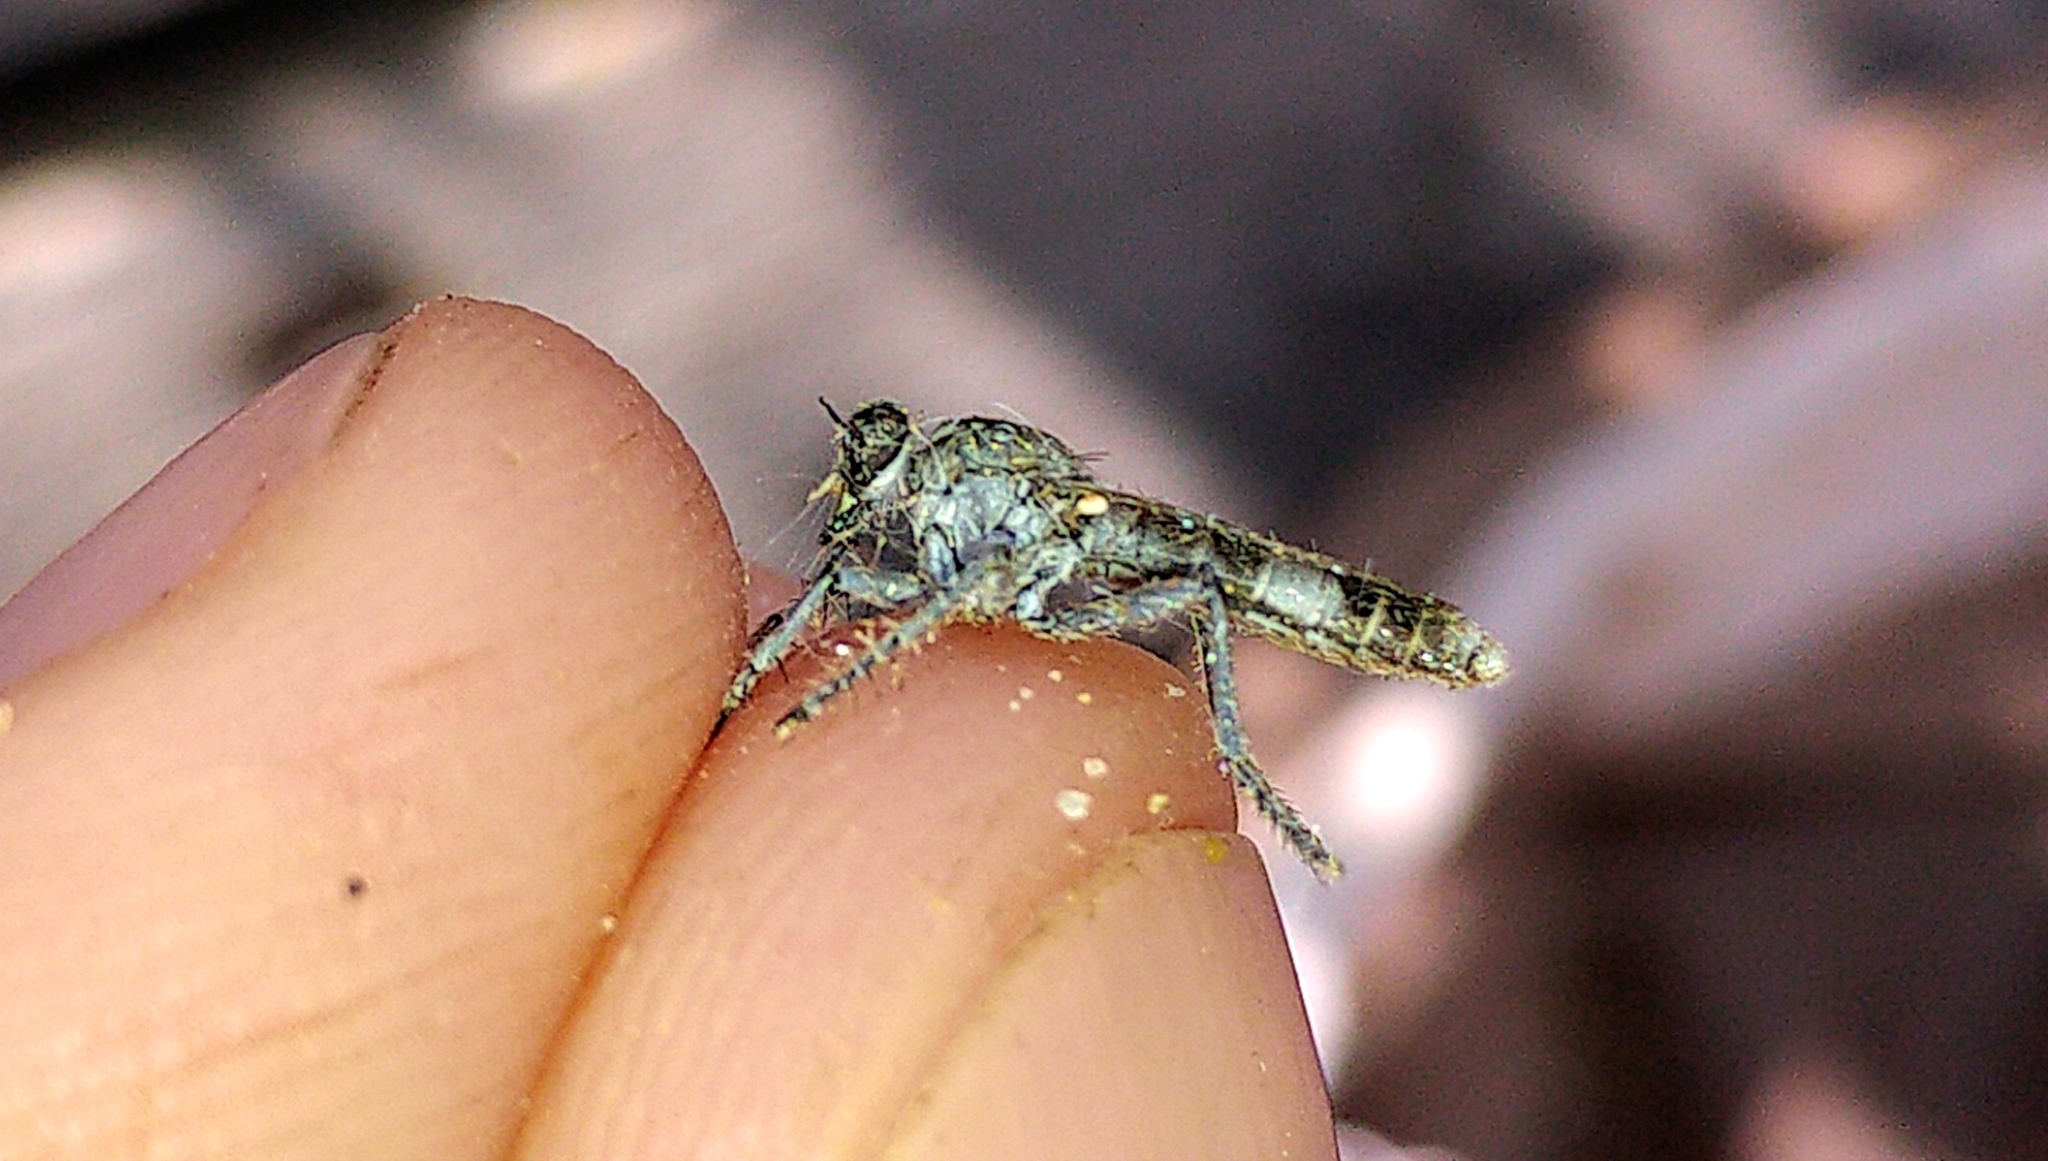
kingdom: Animalia
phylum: Arthropoda
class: Insecta
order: Diptera
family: Asilidae
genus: Stichopogon
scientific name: Stichopogon trifasciatus
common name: Three-banded robber fly
